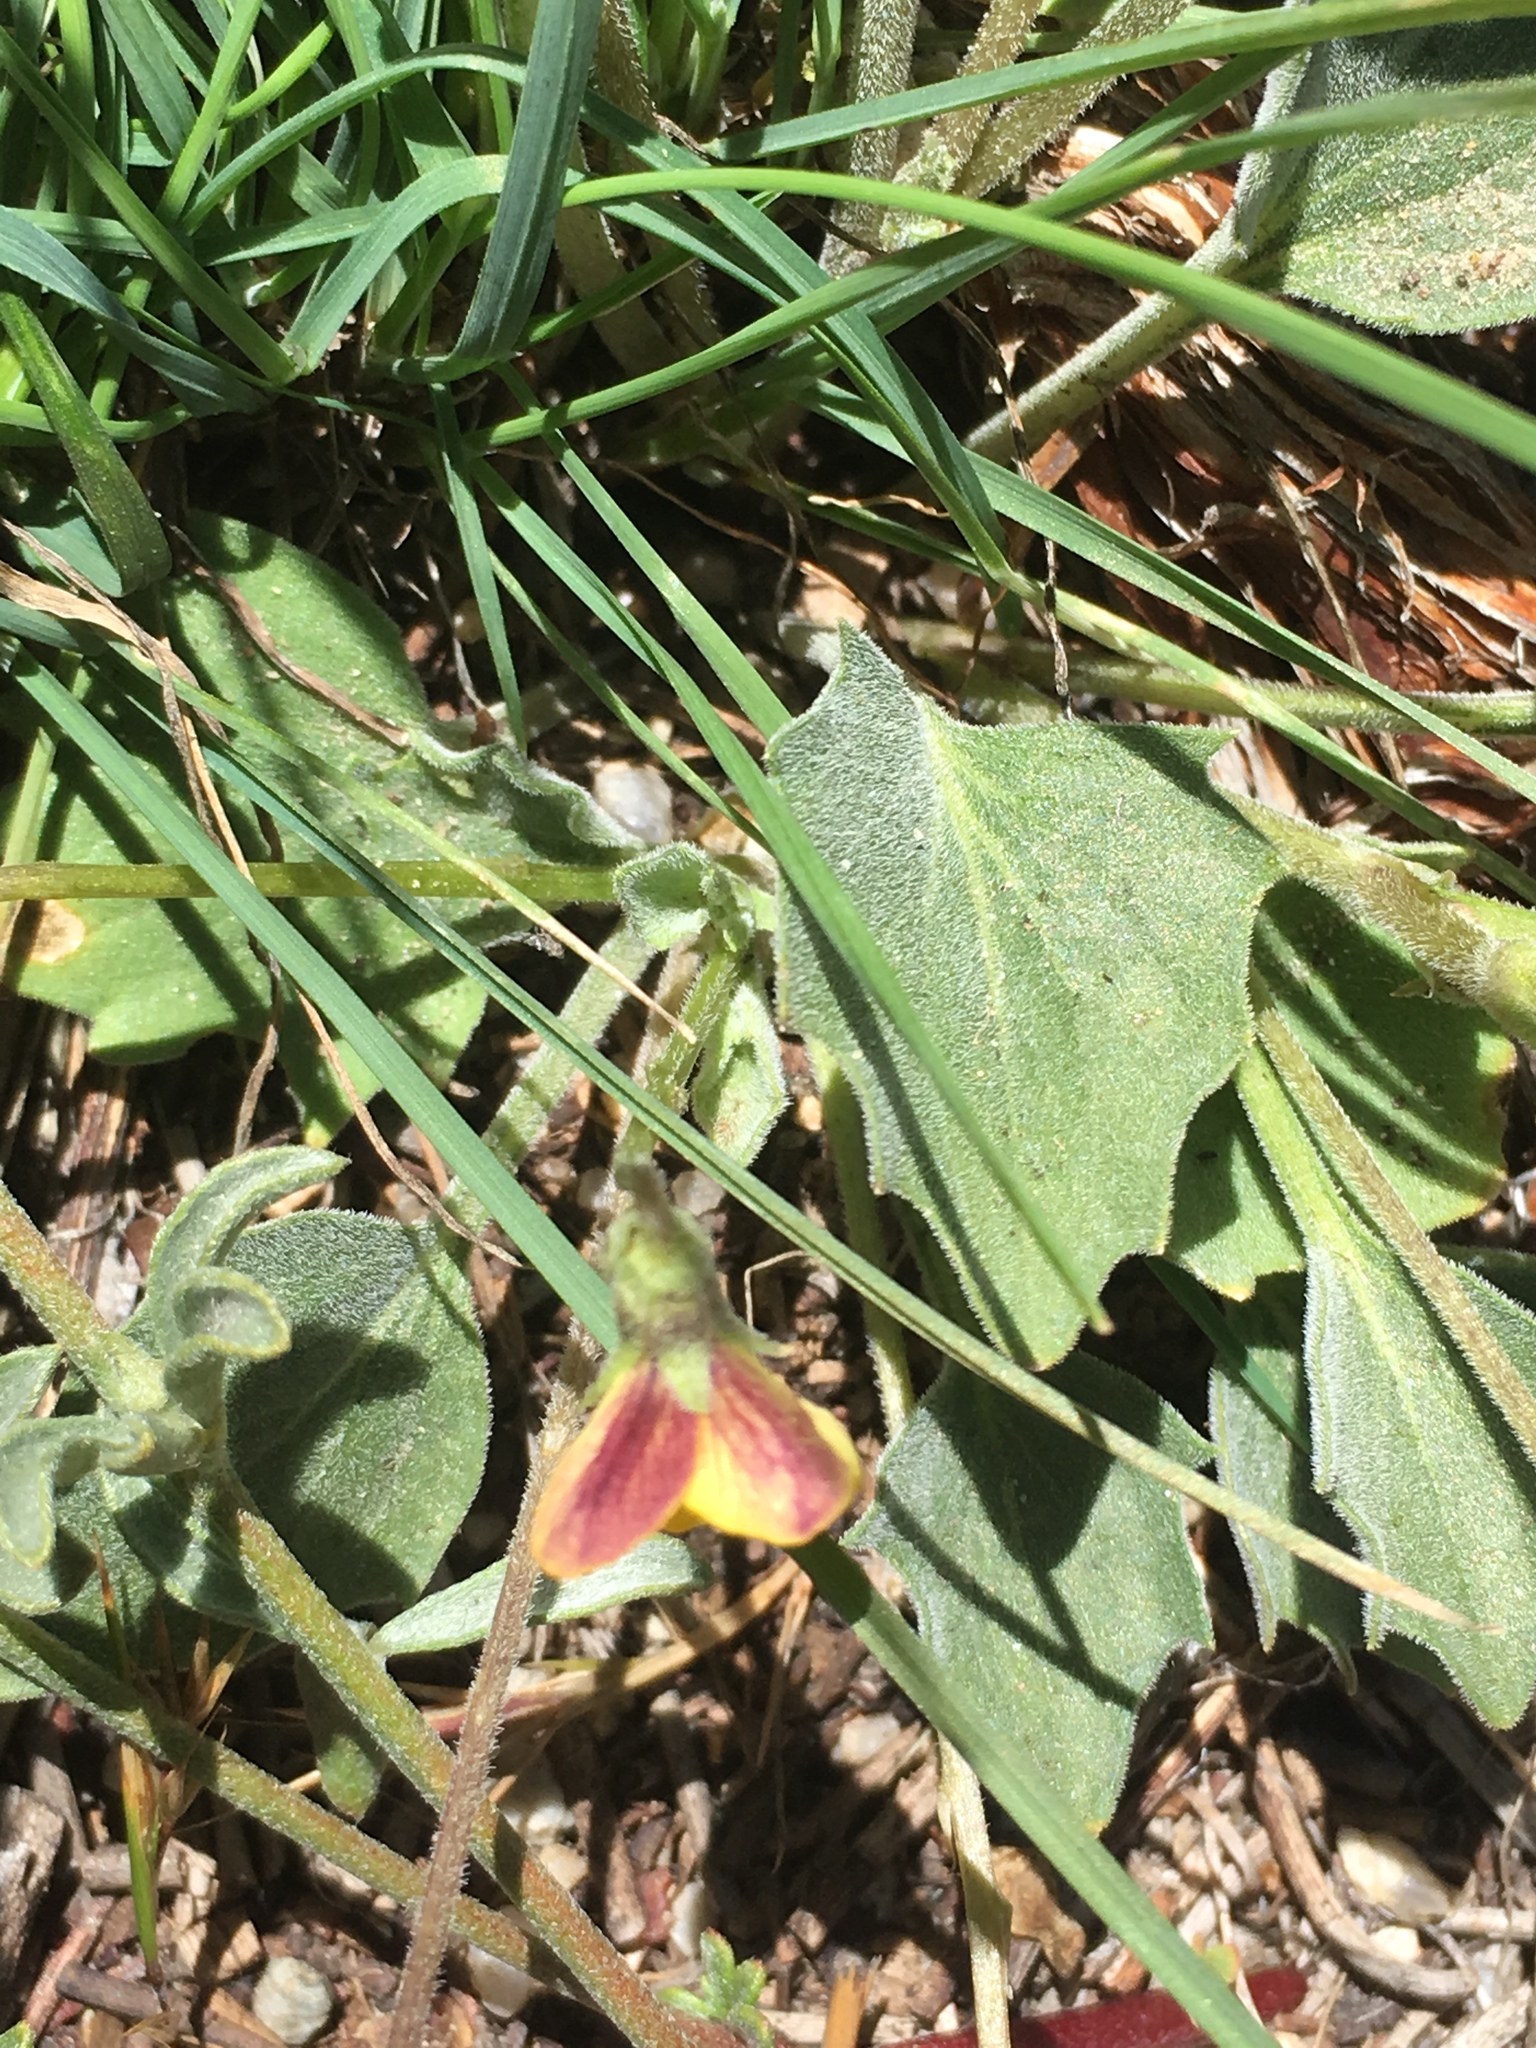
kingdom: Plantae
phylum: Tracheophyta
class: Magnoliopsida
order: Malpighiales
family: Violaceae
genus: Viola
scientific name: Viola purpurea
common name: Pine violet
